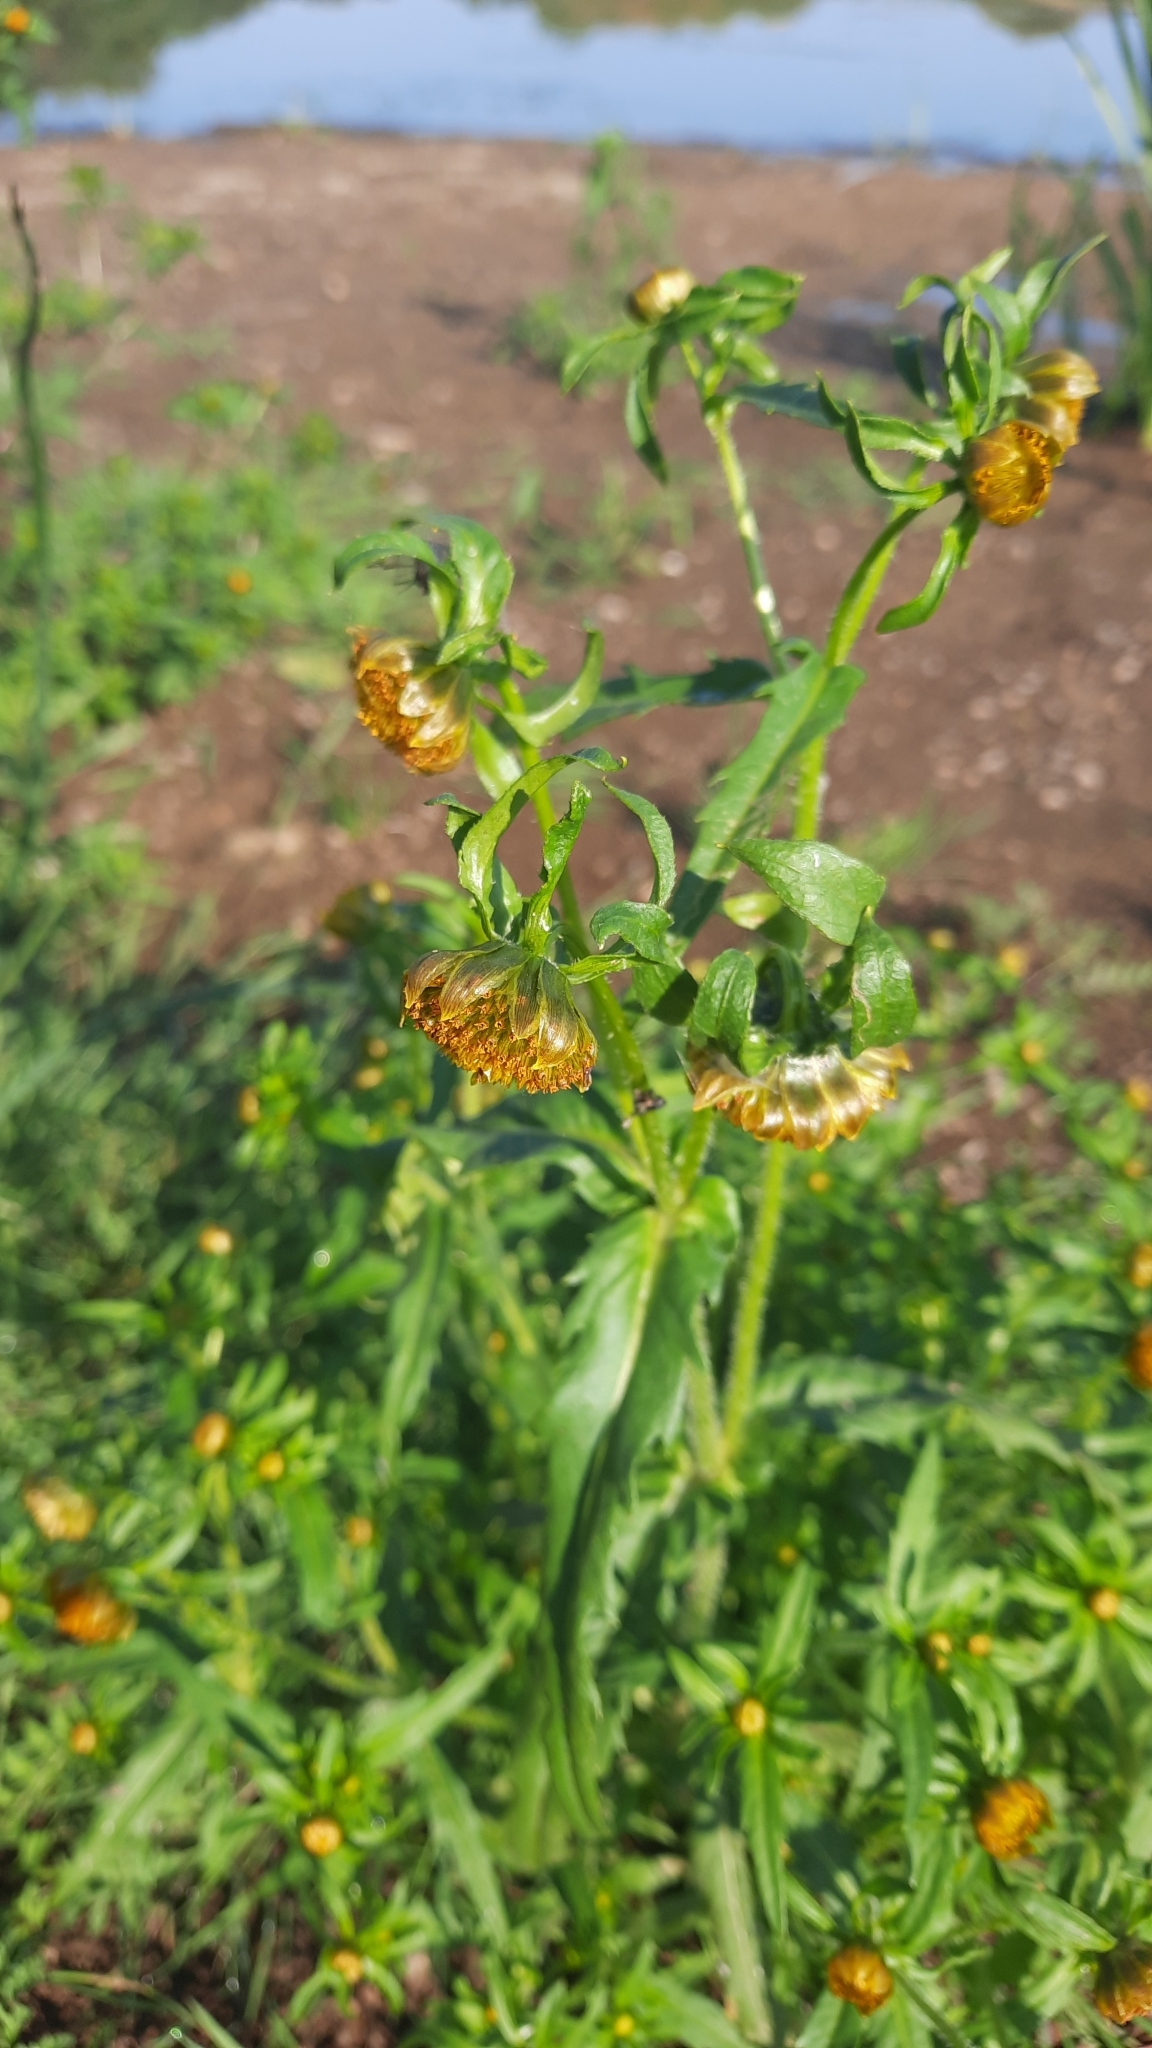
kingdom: Plantae
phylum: Tracheophyta
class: Magnoliopsida
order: Asterales
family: Asteraceae
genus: Bidens
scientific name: Bidens cernua
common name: Nodding bur-marigold
